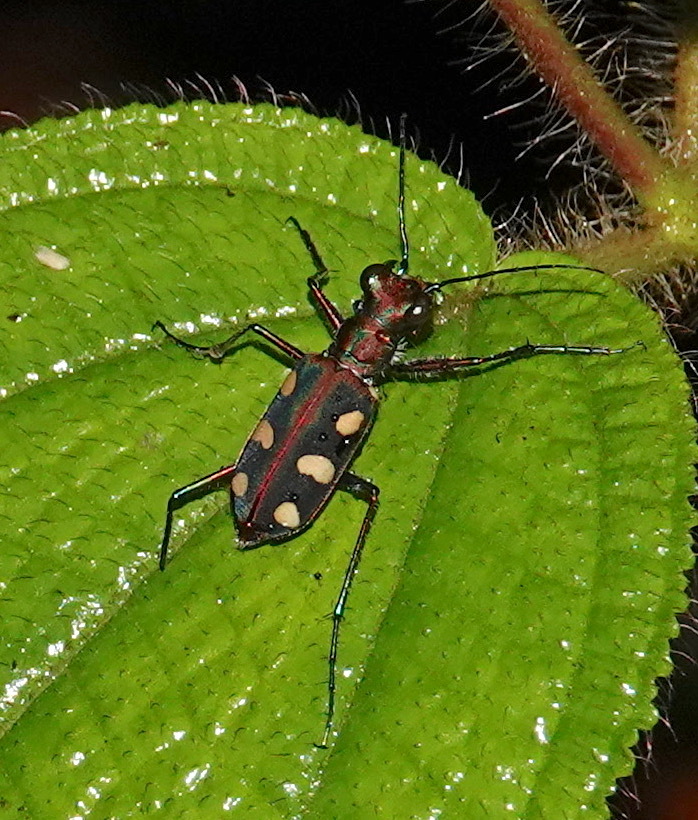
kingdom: Animalia
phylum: Arthropoda
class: Insecta
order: Coleoptera
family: Carabidae
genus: Cicindela
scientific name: Cicindela aurulenta
